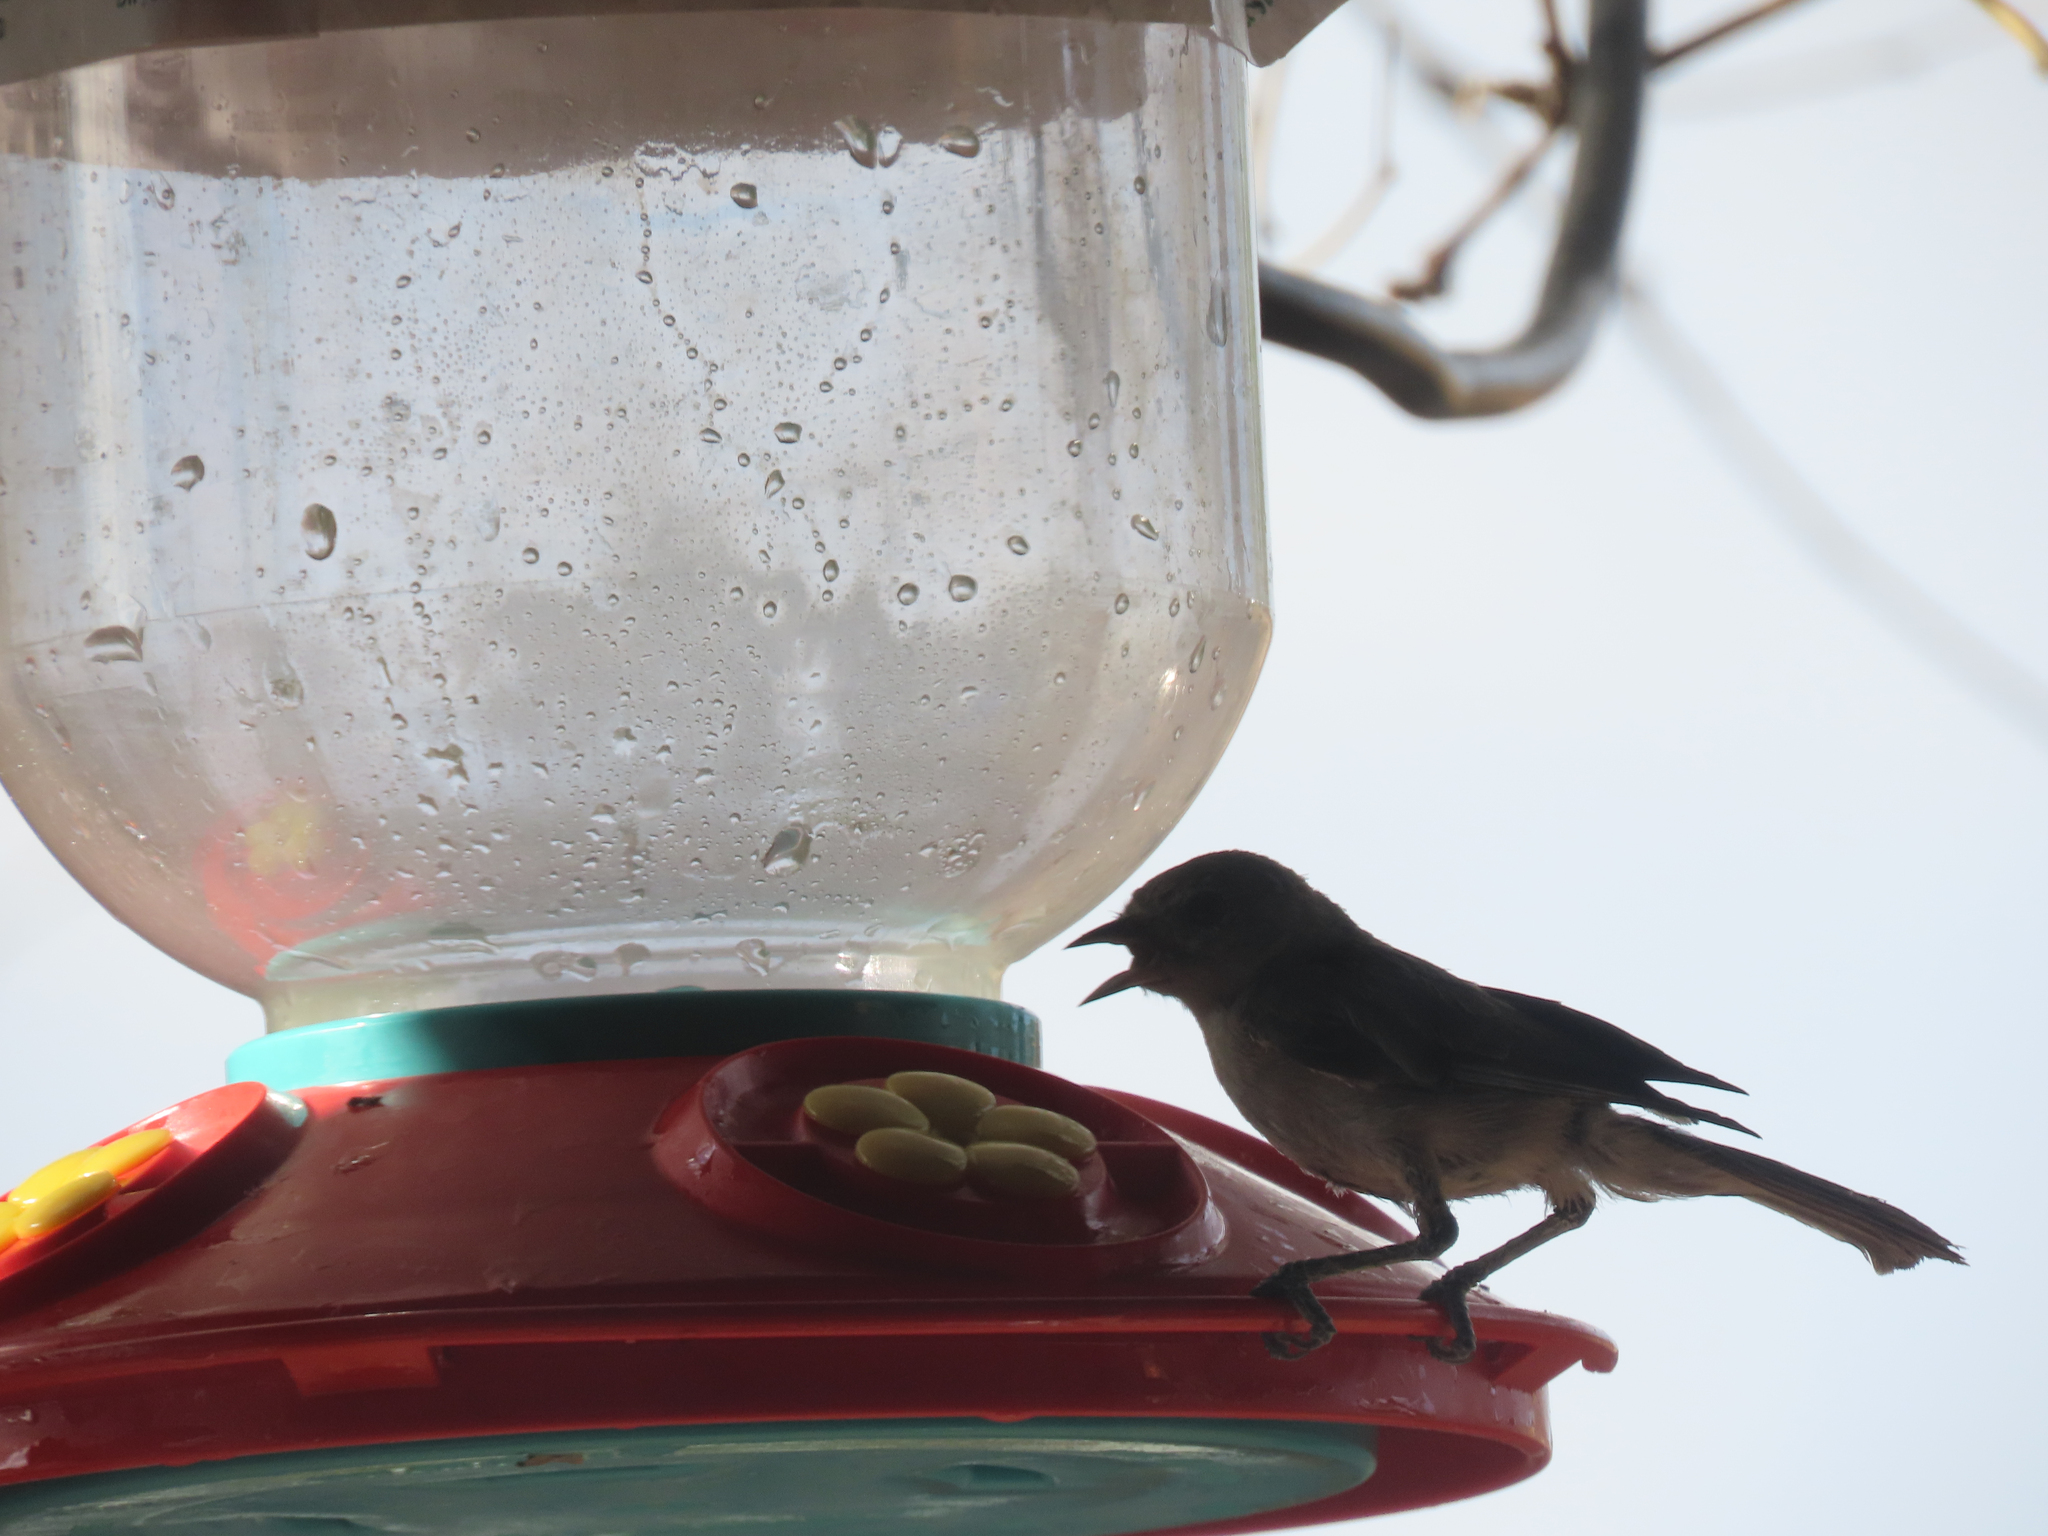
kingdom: Animalia
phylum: Chordata
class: Aves
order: Passeriformes
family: Remizidae
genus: Auriparus
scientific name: Auriparus flaviceps
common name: Verdin
